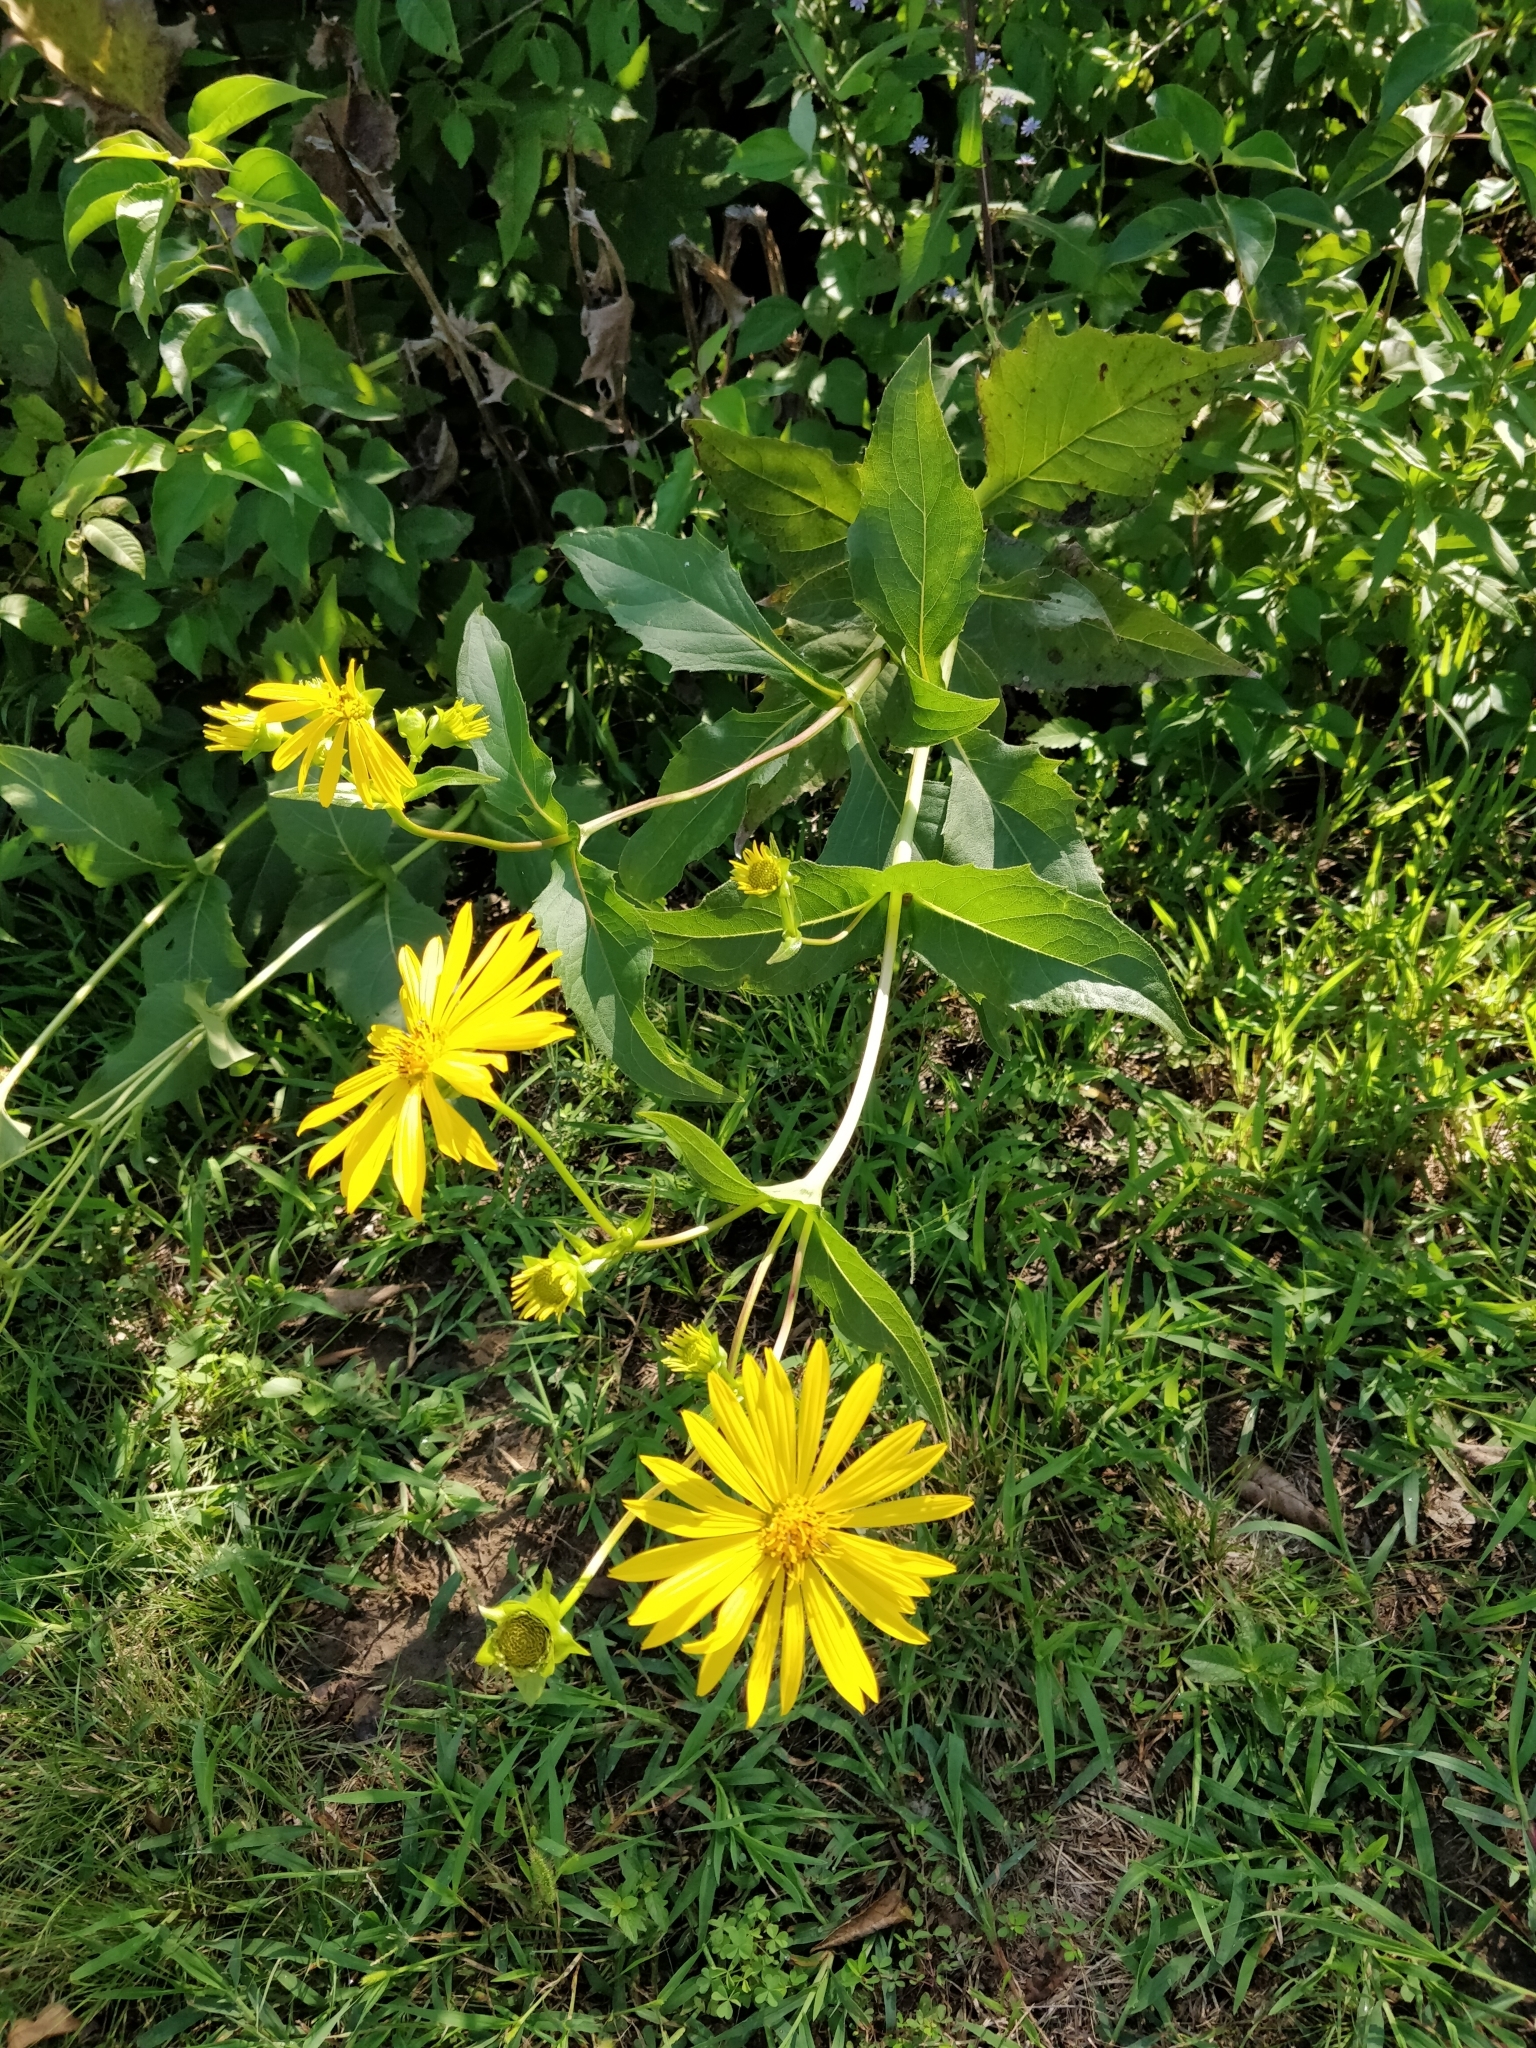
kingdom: Plantae
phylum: Tracheophyta
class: Magnoliopsida
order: Asterales
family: Asteraceae
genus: Silphium
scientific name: Silphium perfoliatum
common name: Cup-plant
